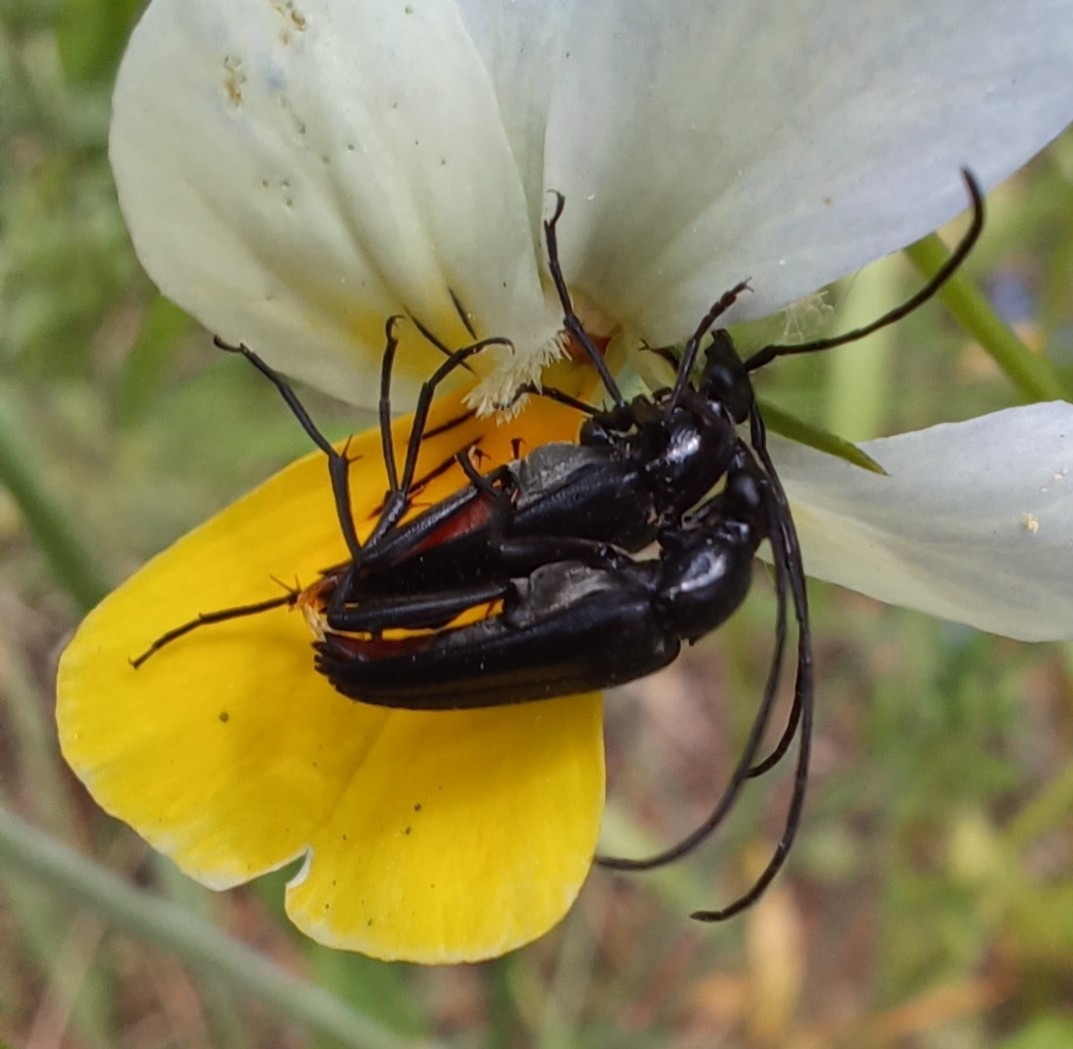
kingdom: Animalia
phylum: Arthropoda
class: Insecta
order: Coleoptera
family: Cerambycidae
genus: Stenurella
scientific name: Stenurella nigra
